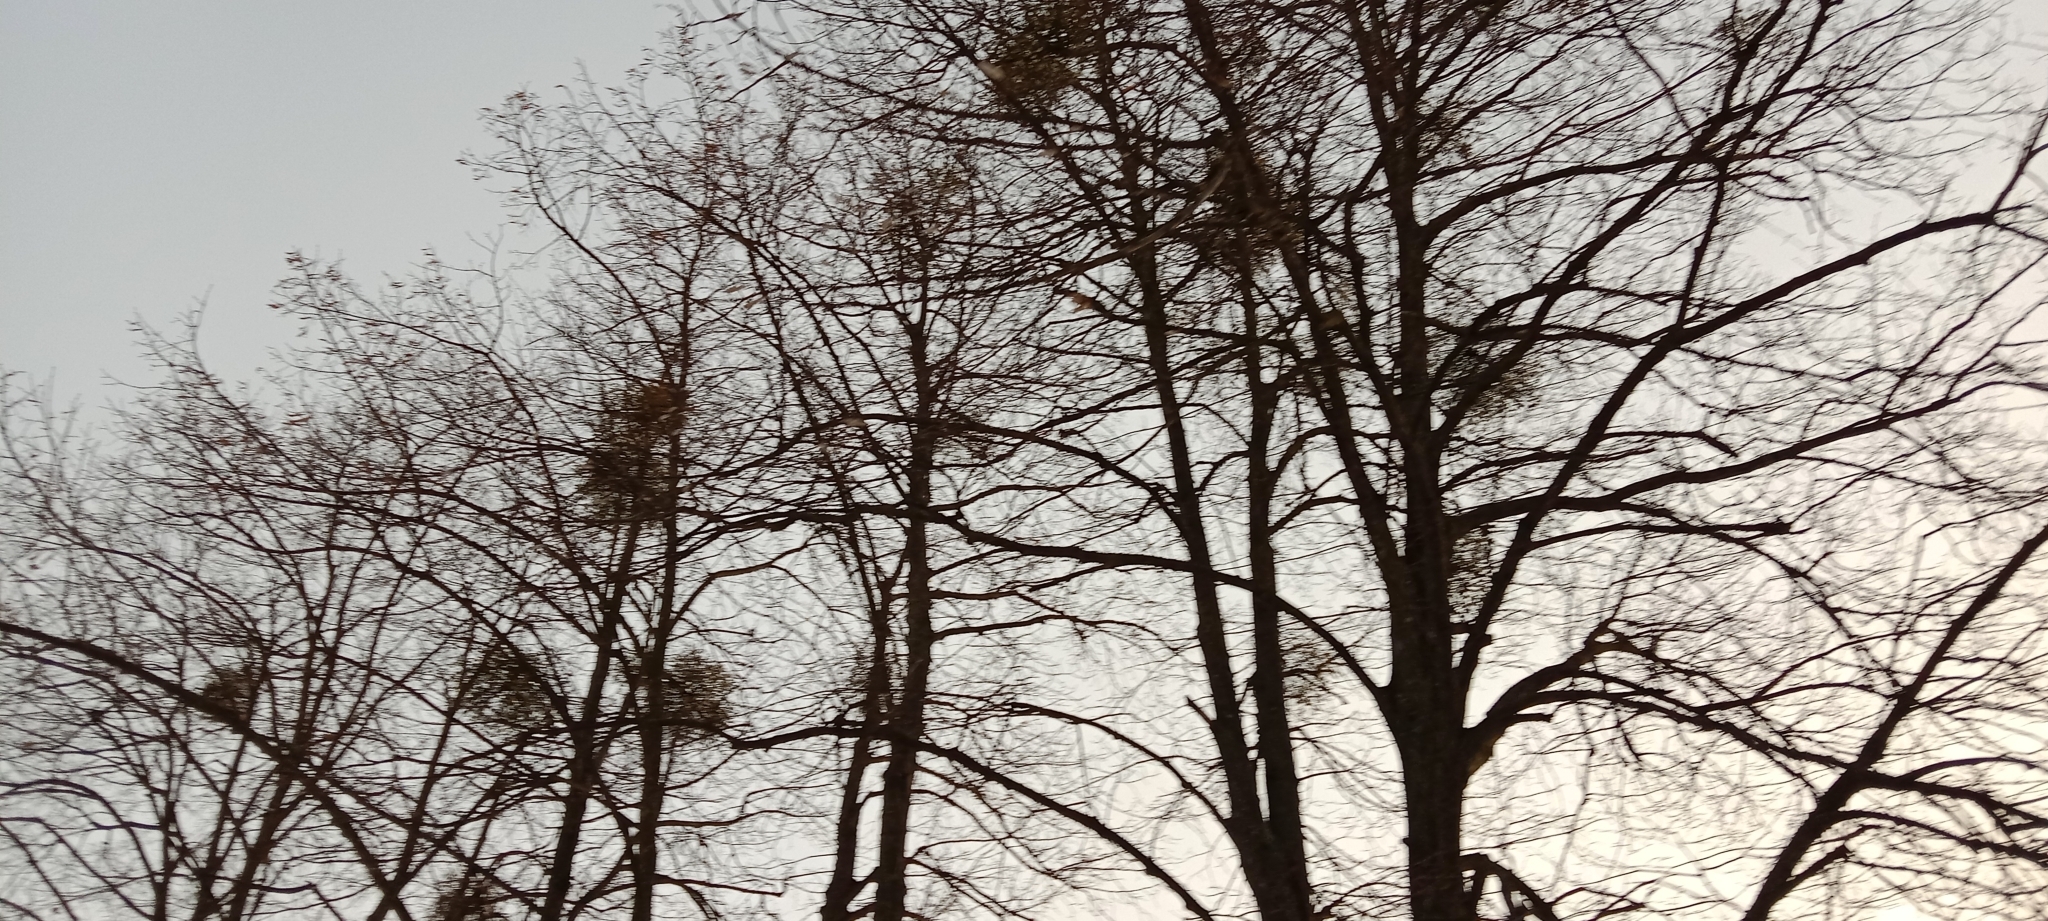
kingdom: Plantae
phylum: Tracheophyta
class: Magnoliopsida
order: Santalales
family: Viscaceae
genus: Viscum
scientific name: Viscum album
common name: Mistletoe
